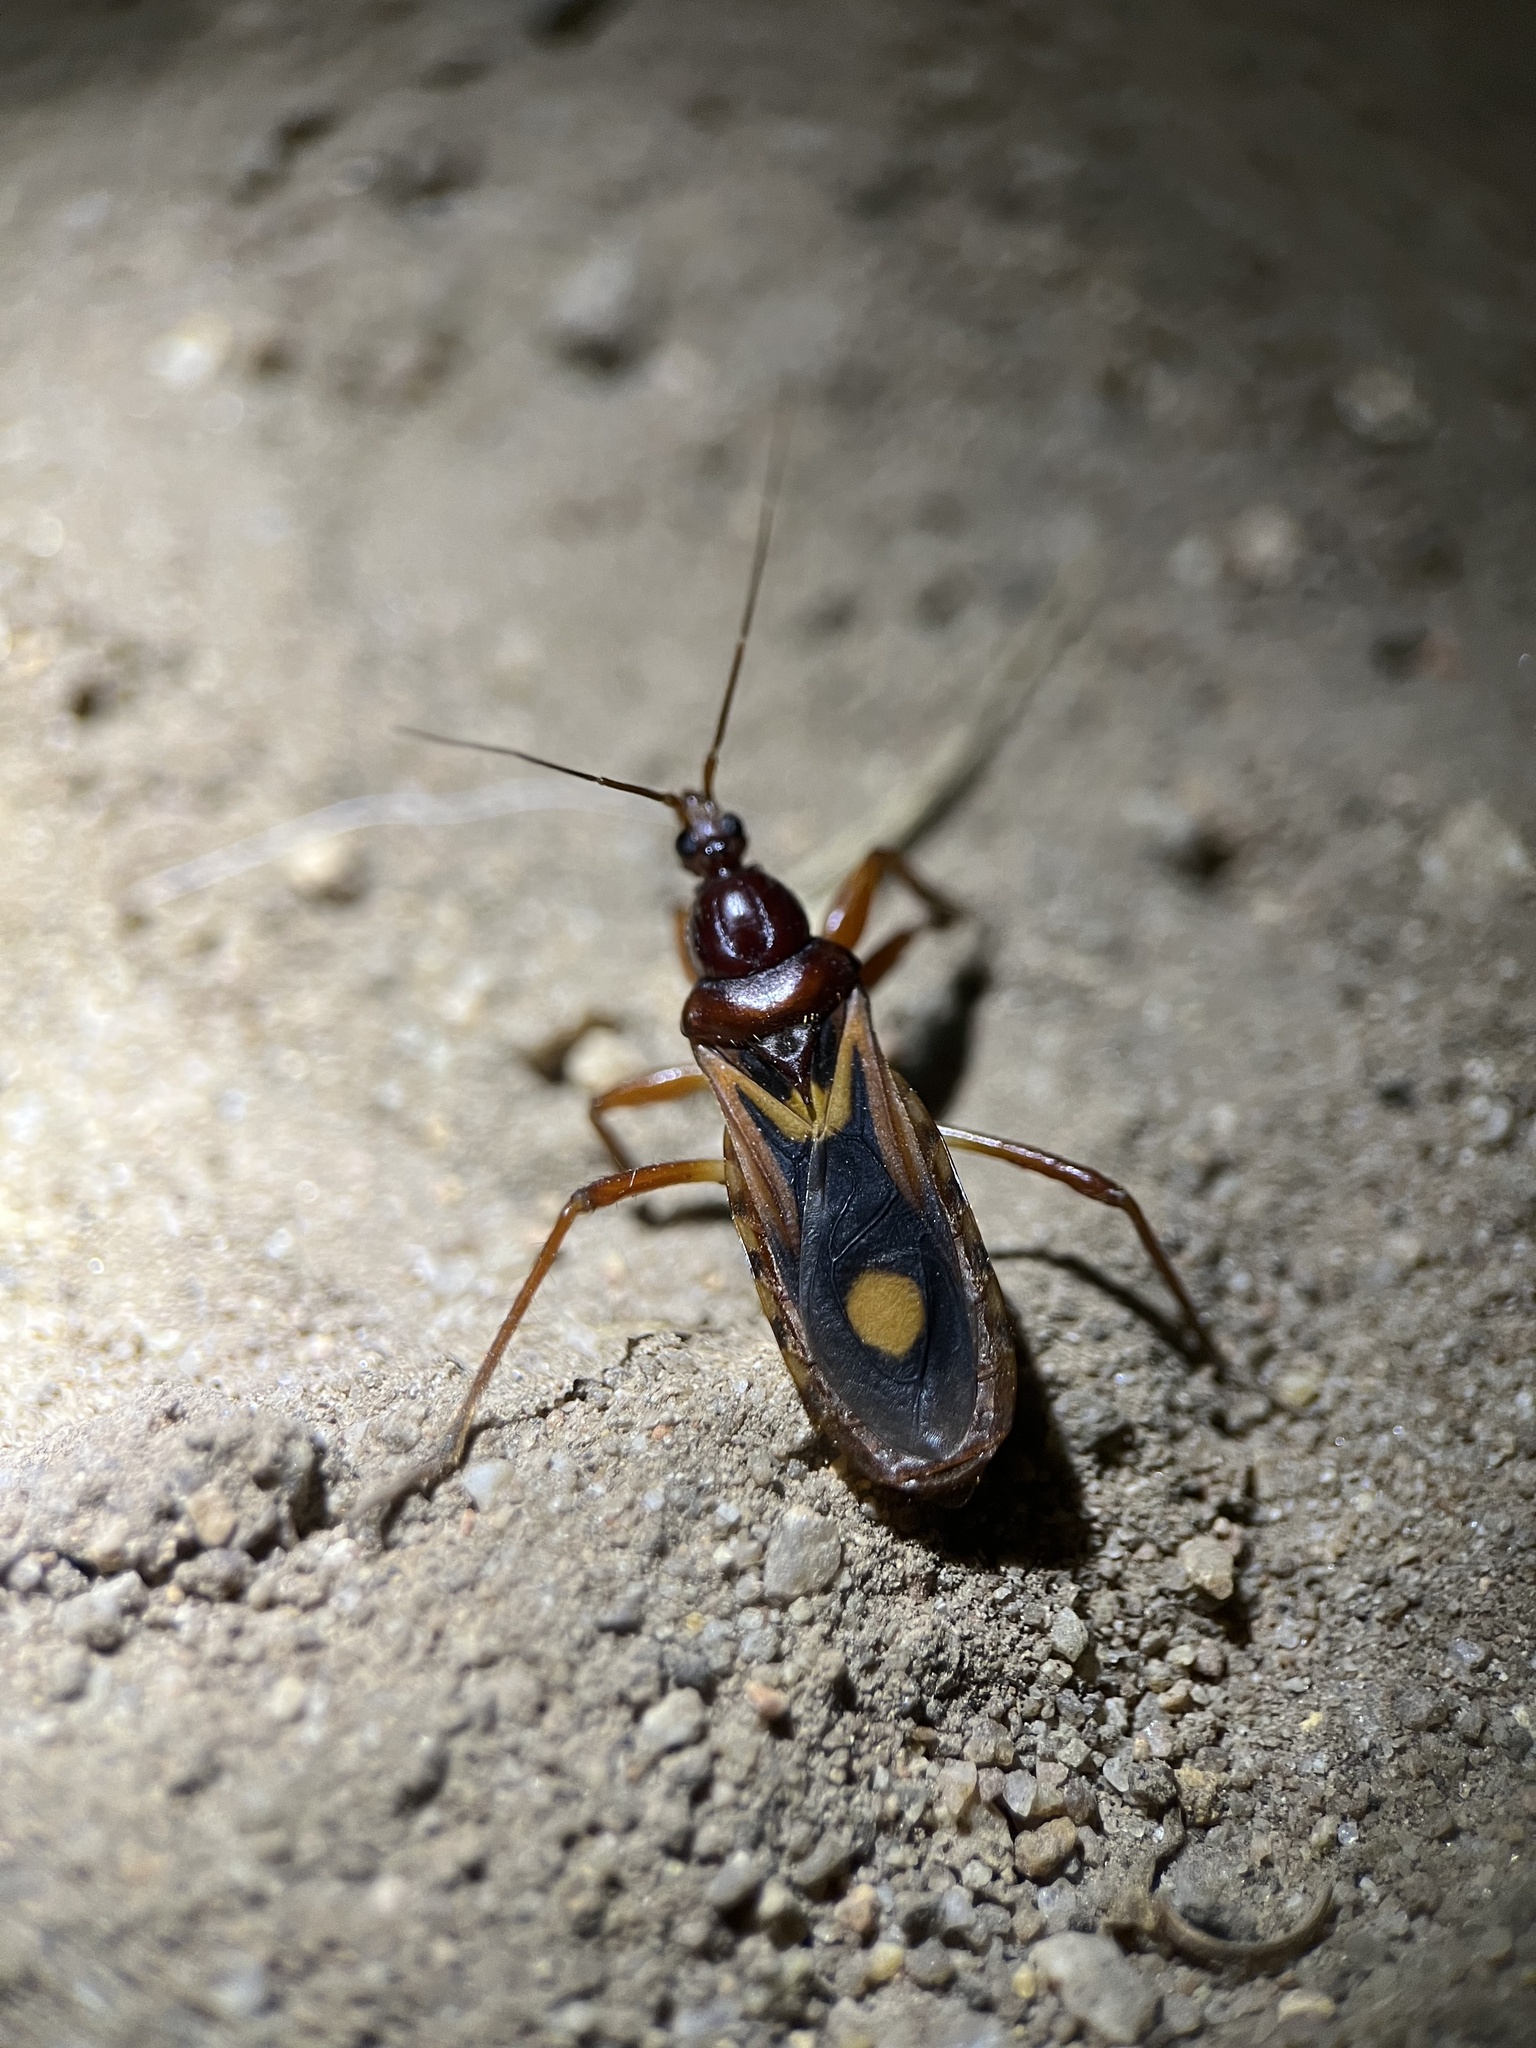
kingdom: Animalia
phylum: Arthropoda
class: Insecta
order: Hemiptera
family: Reduviidae
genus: Rasahus
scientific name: Rasahus thoracicus
